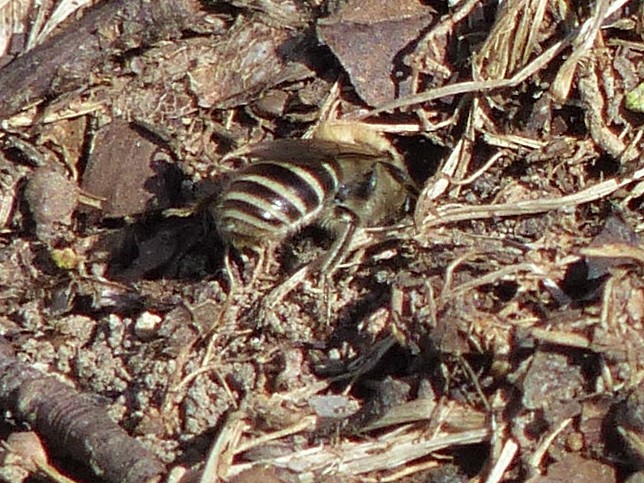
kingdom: Animalia
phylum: Arthropoda
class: Insecta
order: Hymenoptera
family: Colletidae
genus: Colletes
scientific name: Colletes inaequalis
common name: Unequal cellophane bee
